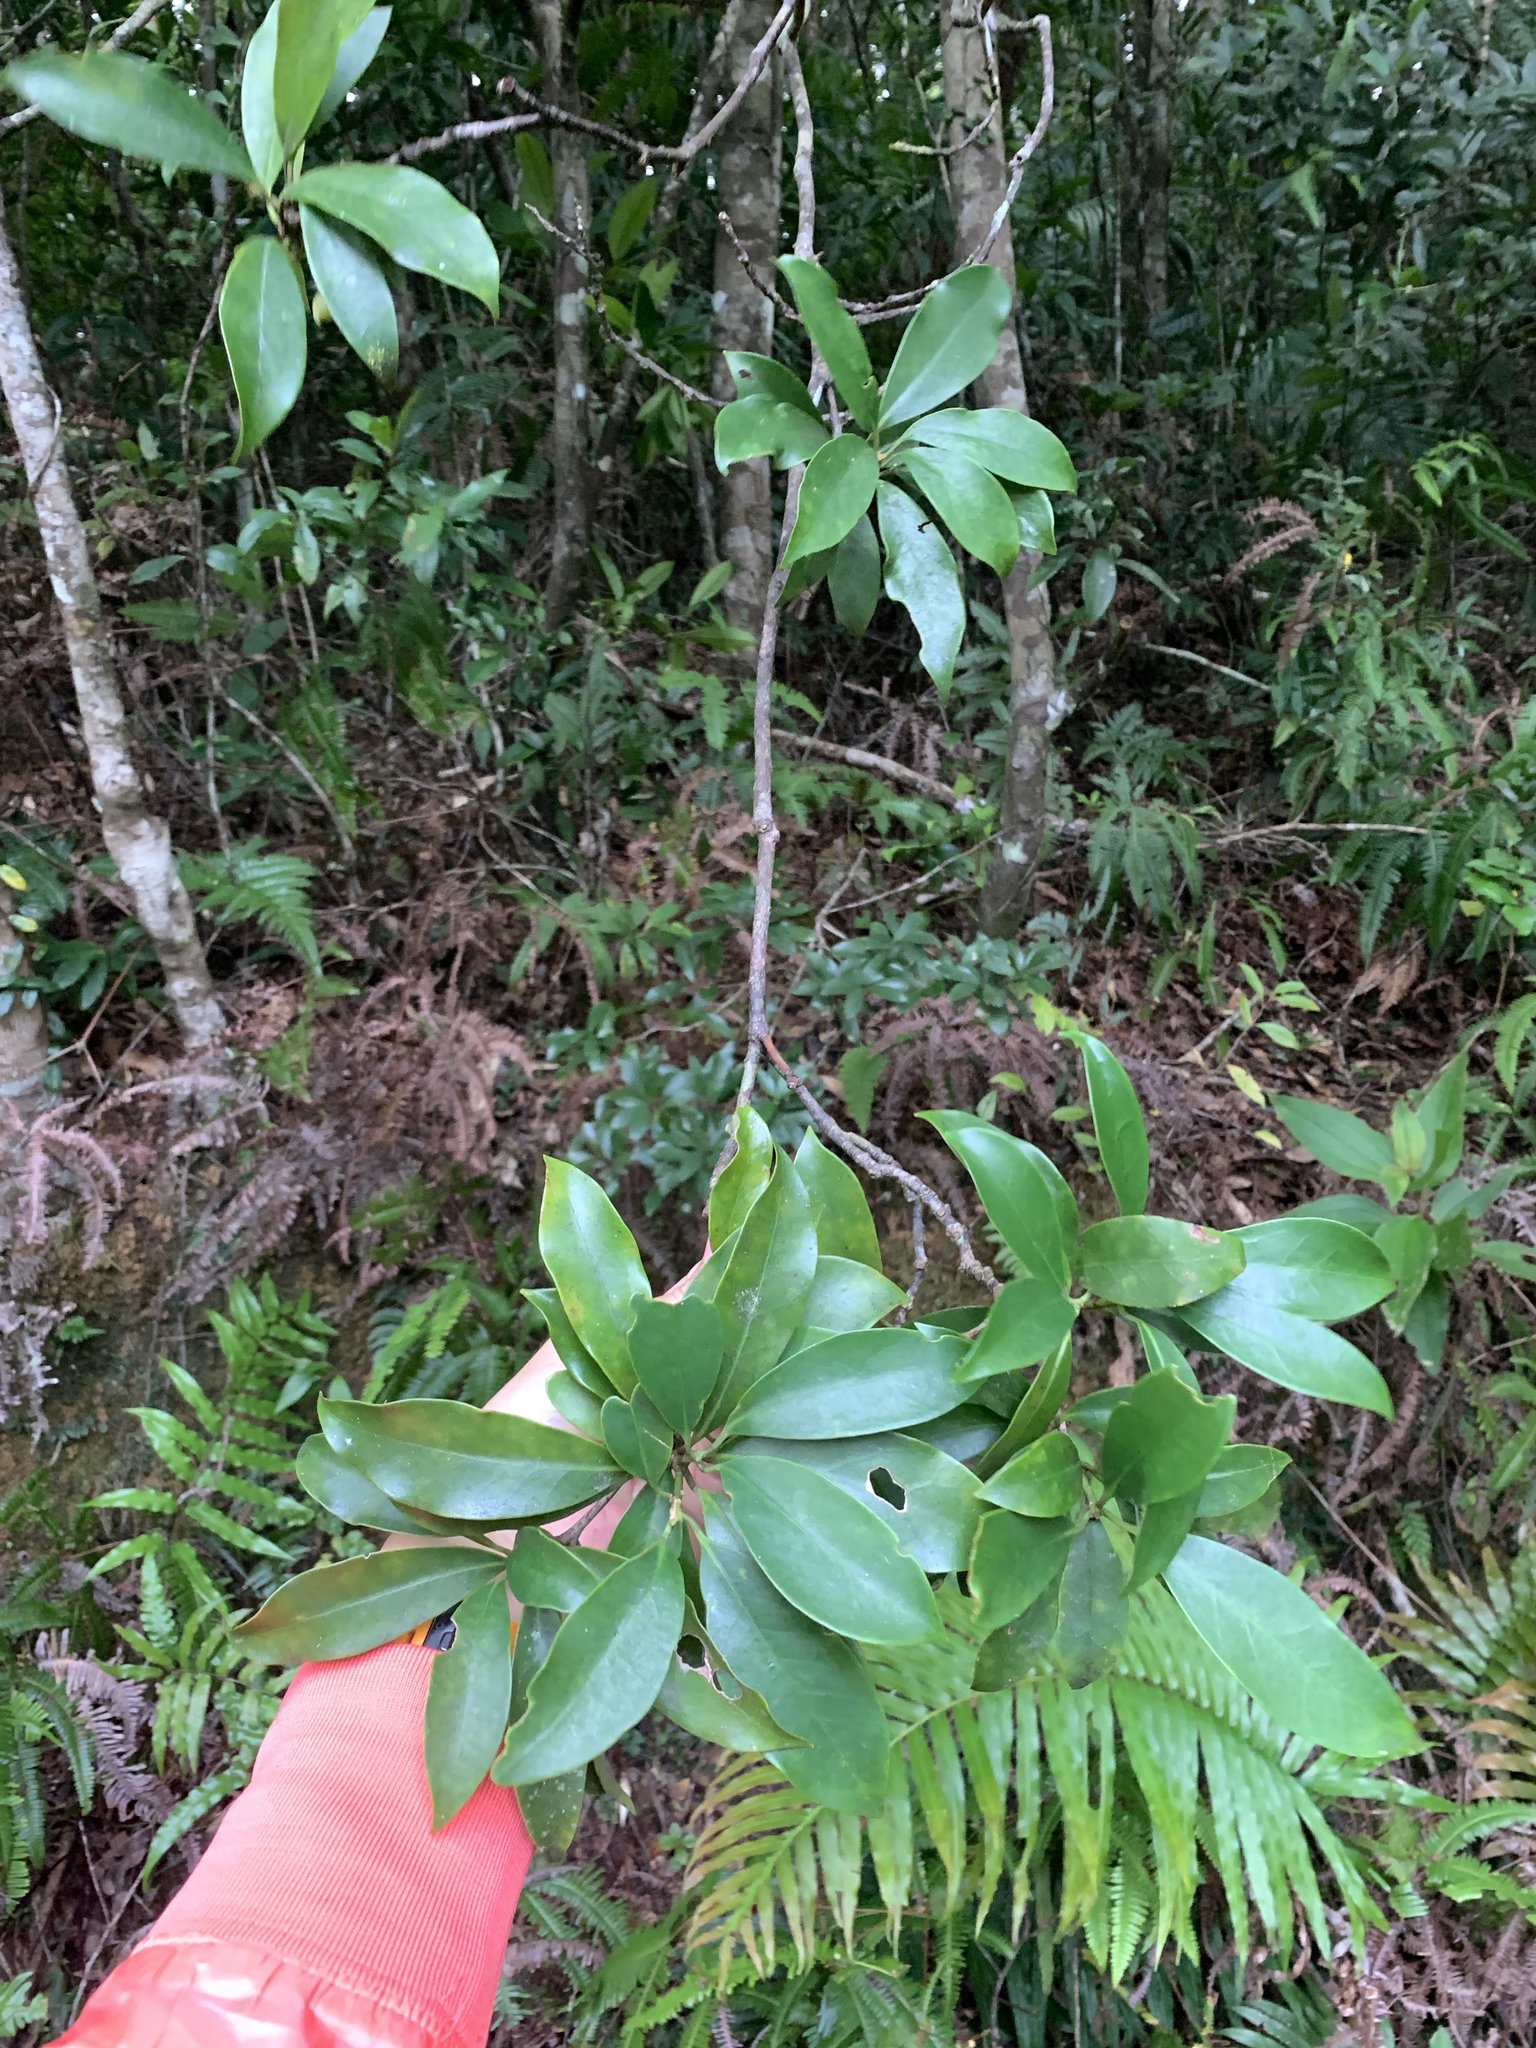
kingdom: Plantae
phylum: Tracheophyta
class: Magnoliopsida
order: Austrobaileyales
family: Schisandraceae
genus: Illicium
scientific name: Illicium arborescens
